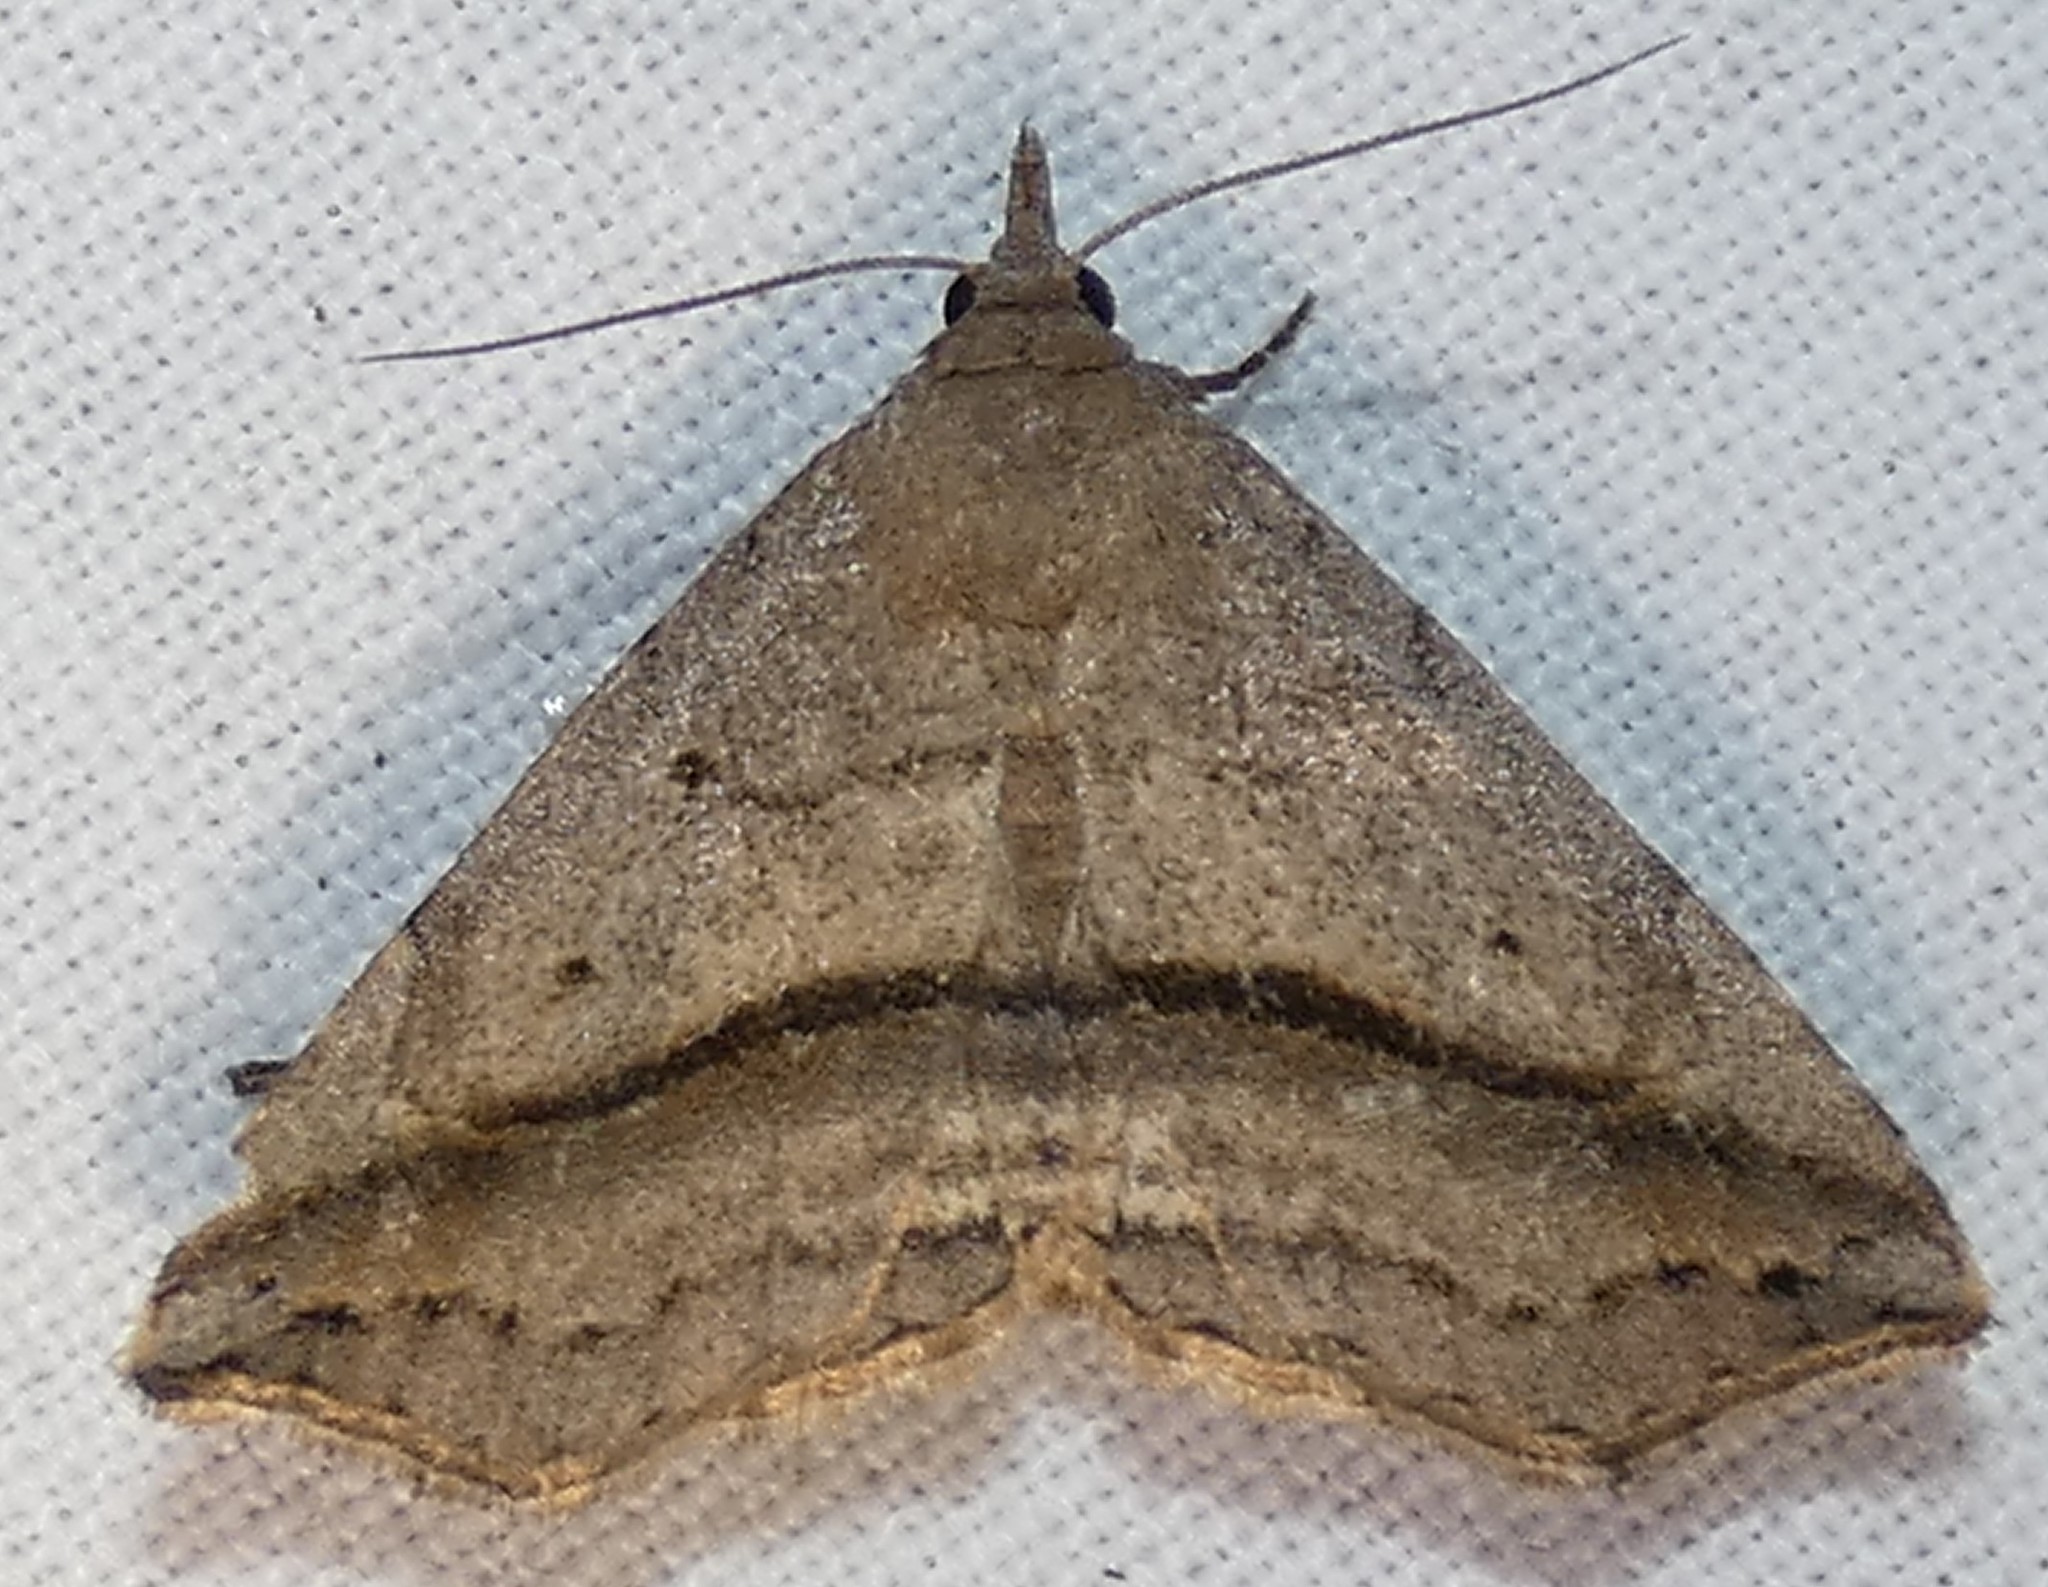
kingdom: Animalia
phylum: Arthropoda
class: Insecta
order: Lepidoptera
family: Erebidae
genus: Spargaloma
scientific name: Spargaloma perditalis
